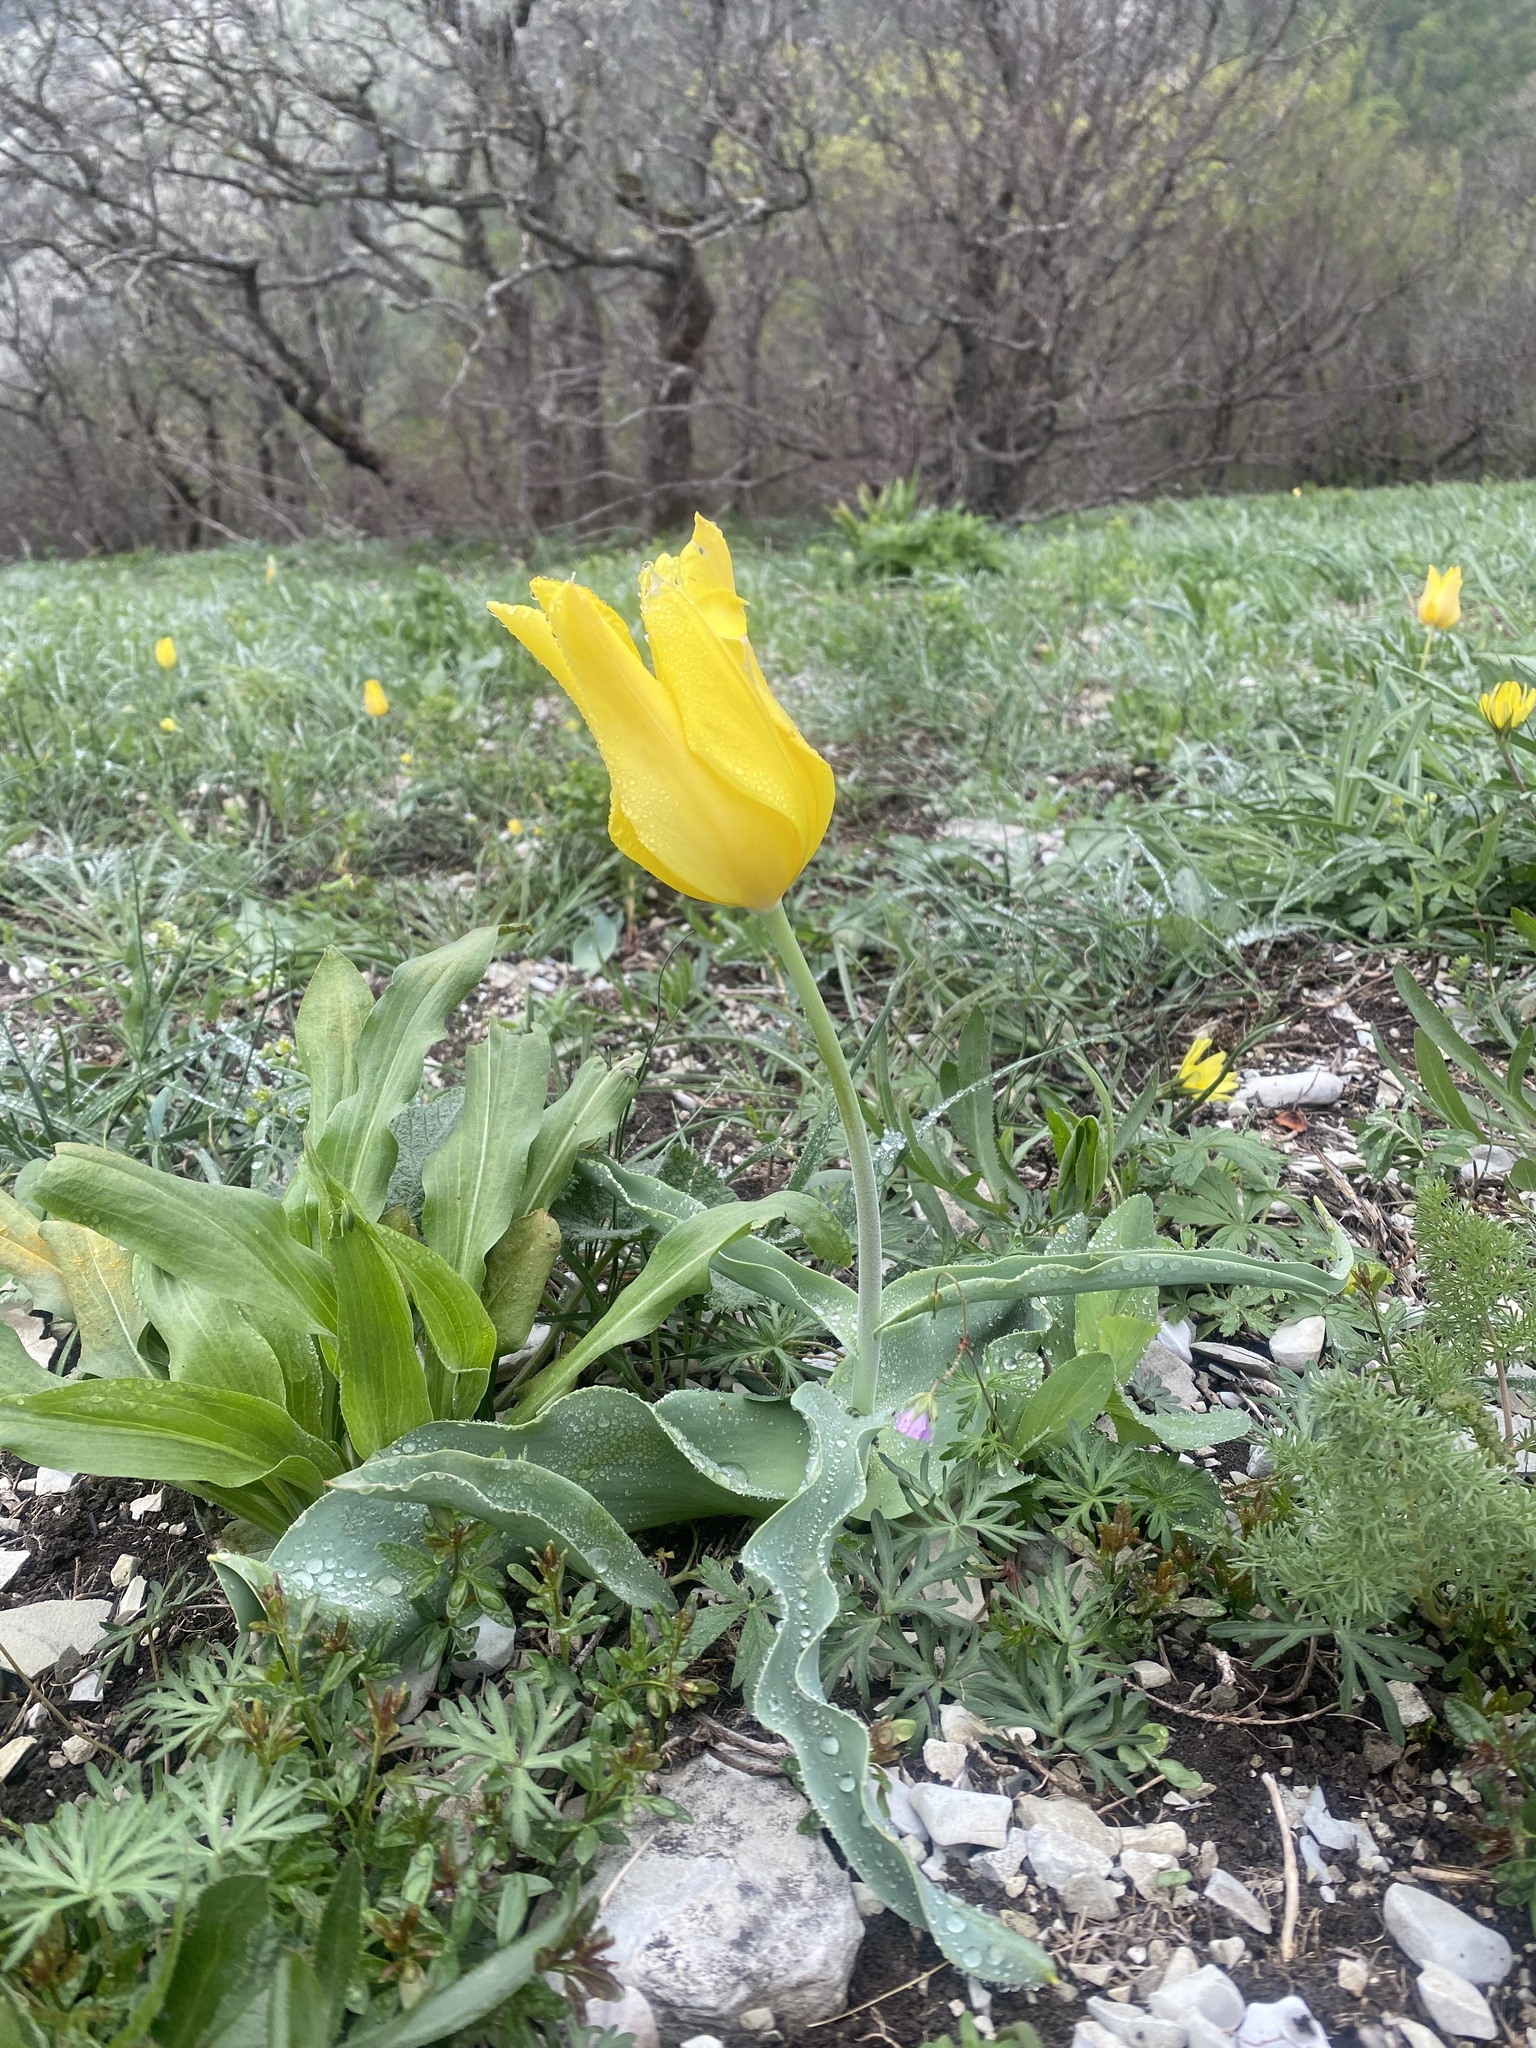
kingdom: Plantae
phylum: Tracheophyta
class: Liliopsida
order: Liliales
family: Liliaceae
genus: Tulipa
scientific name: Tulipa suaveolens
